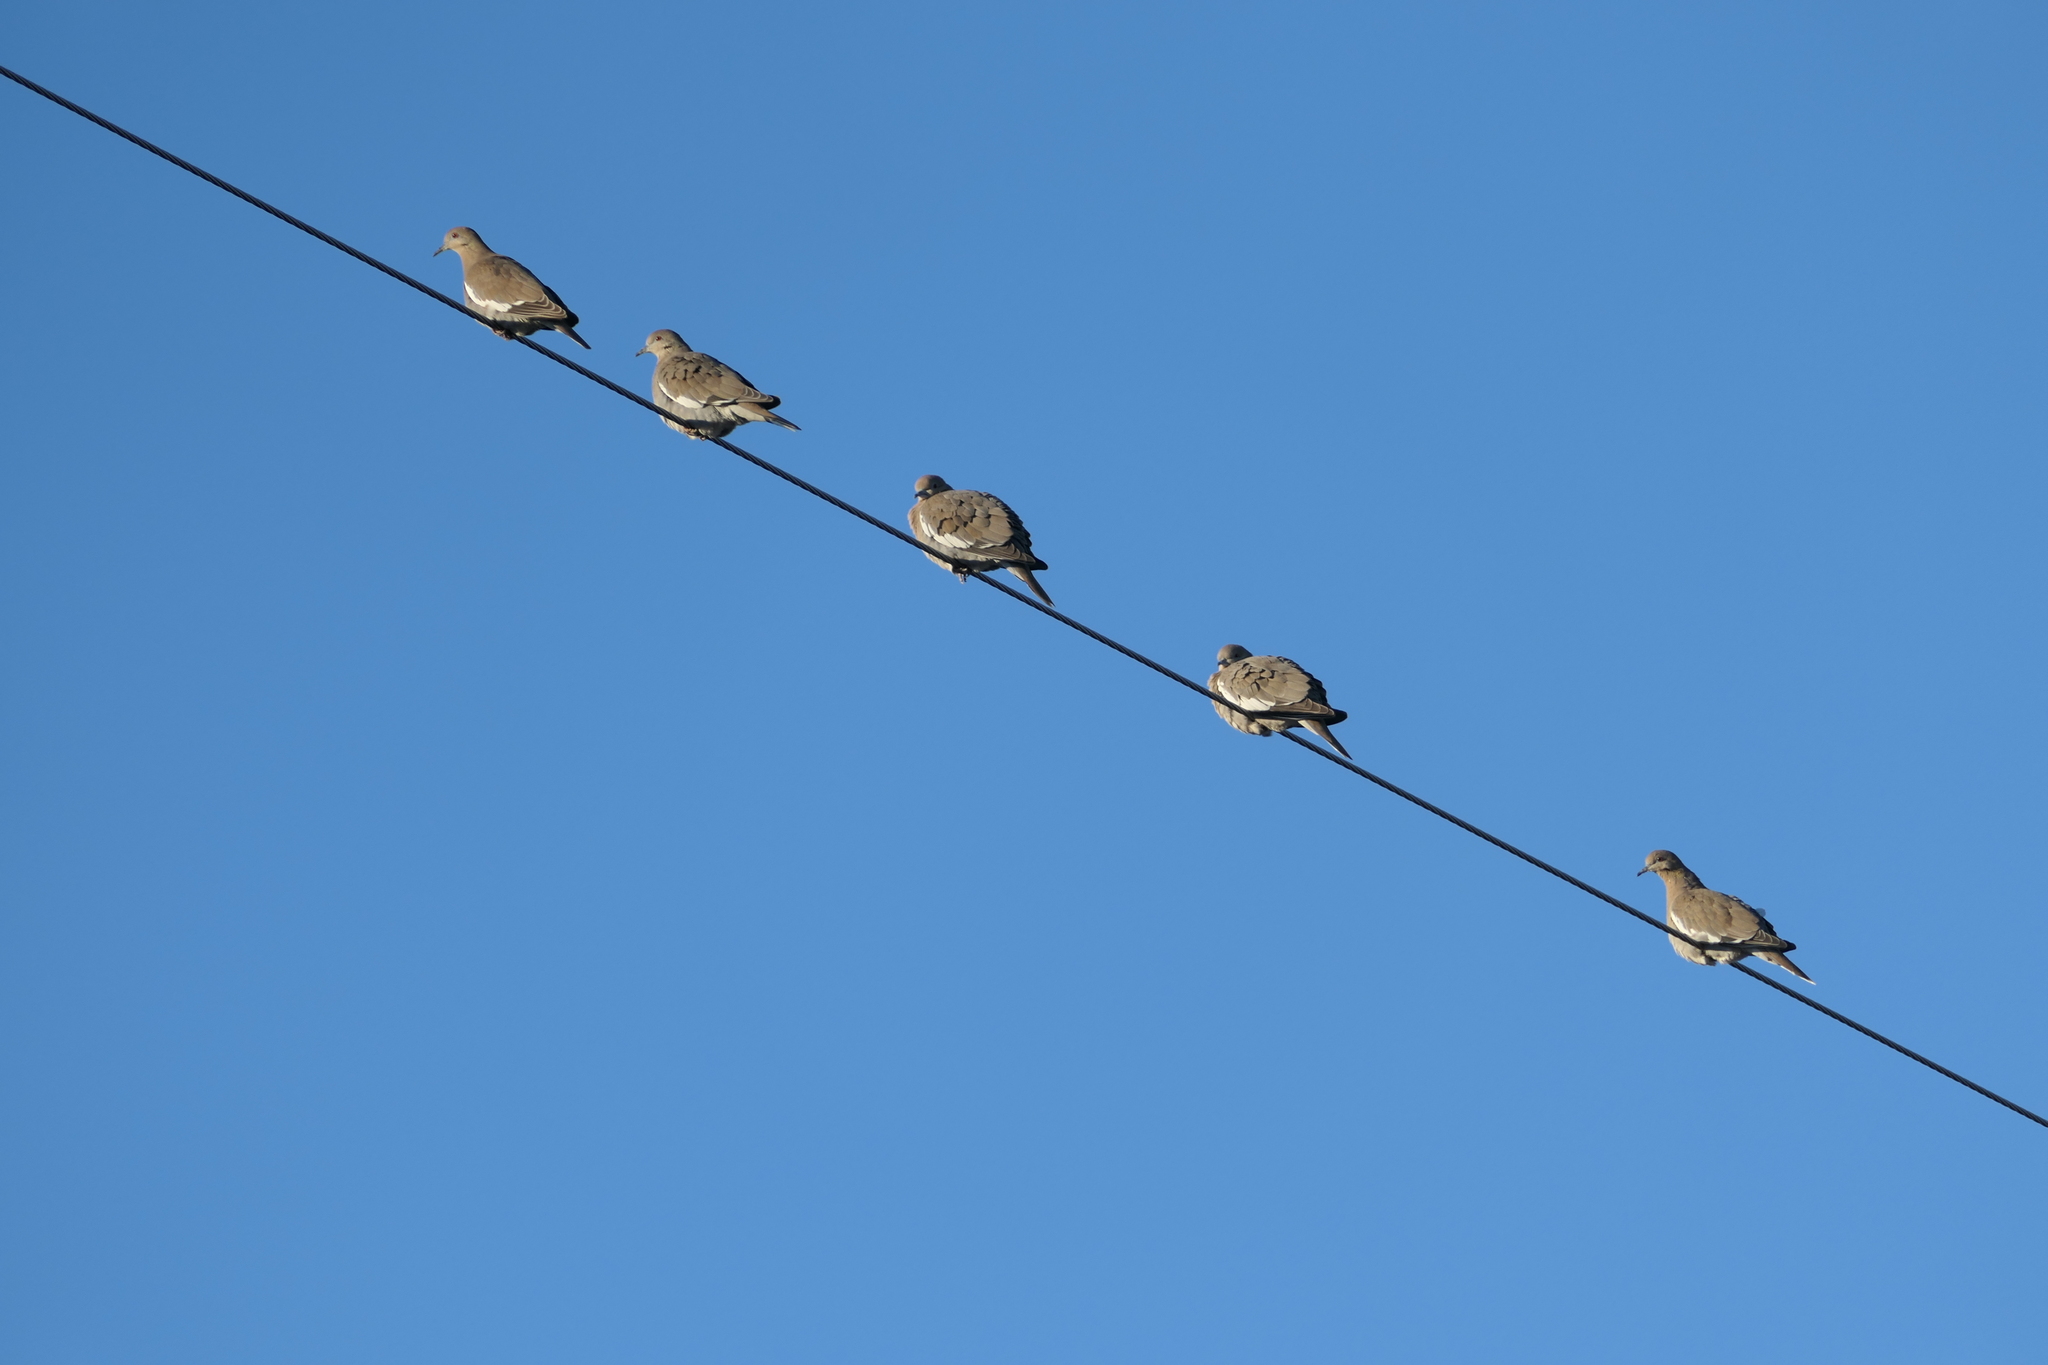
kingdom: Animalia
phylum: Chordata
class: Aves
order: Columbiformes
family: Columbidae
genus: Zenaida
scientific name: Zenaida asiatica
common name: White-winged dove
